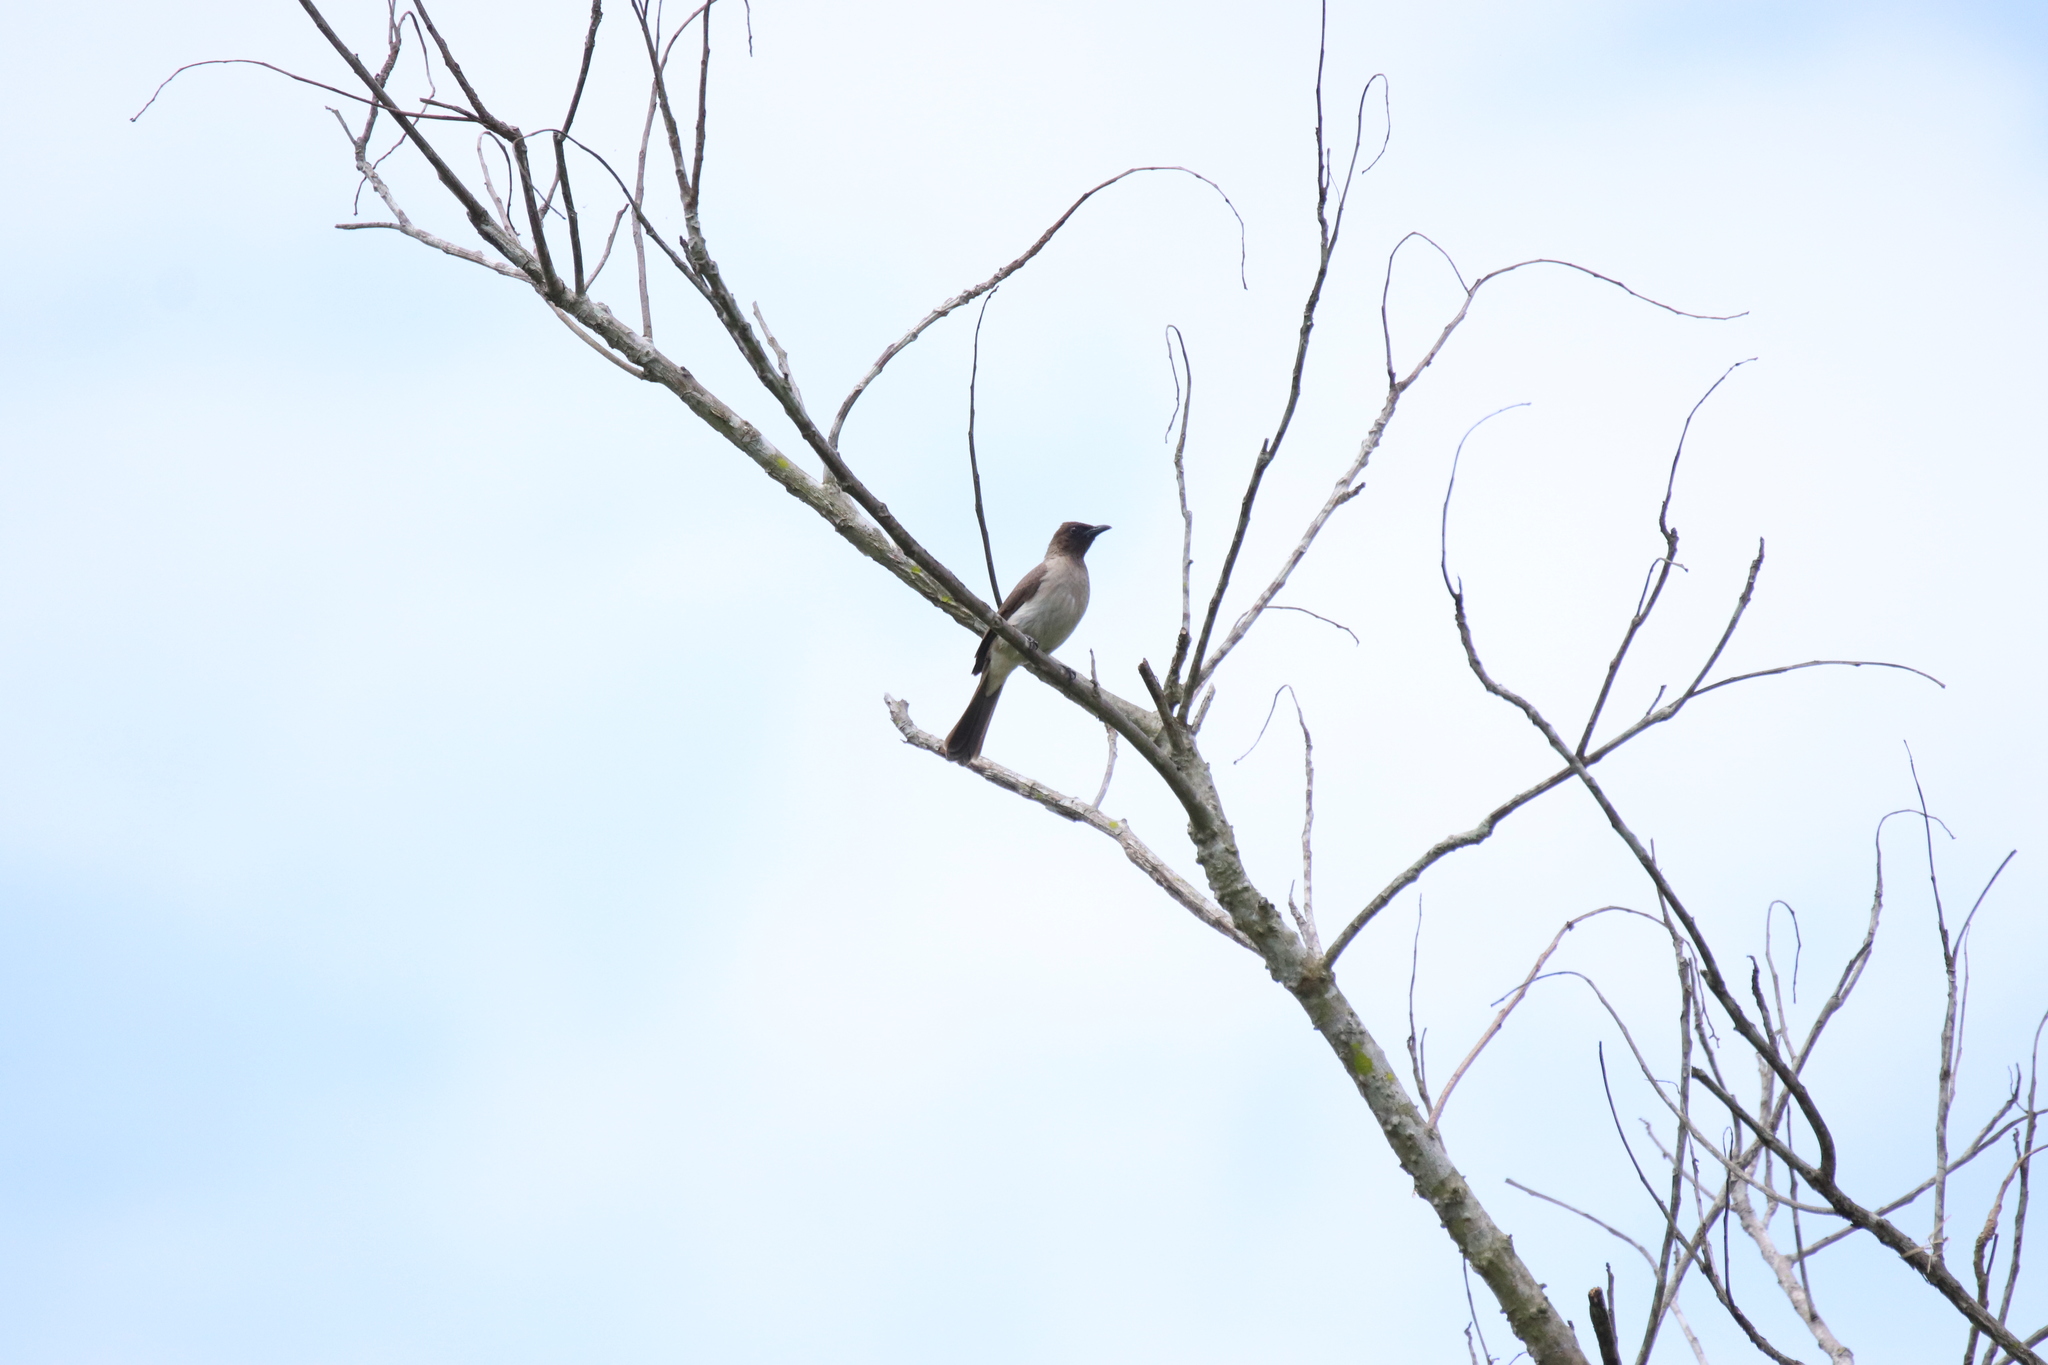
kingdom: Animalia
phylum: Chordata
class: Aves
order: Passeriformes
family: Pycnonotidae
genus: Pycnonotus
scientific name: Pycnonotus barbatus
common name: Common bulbul
